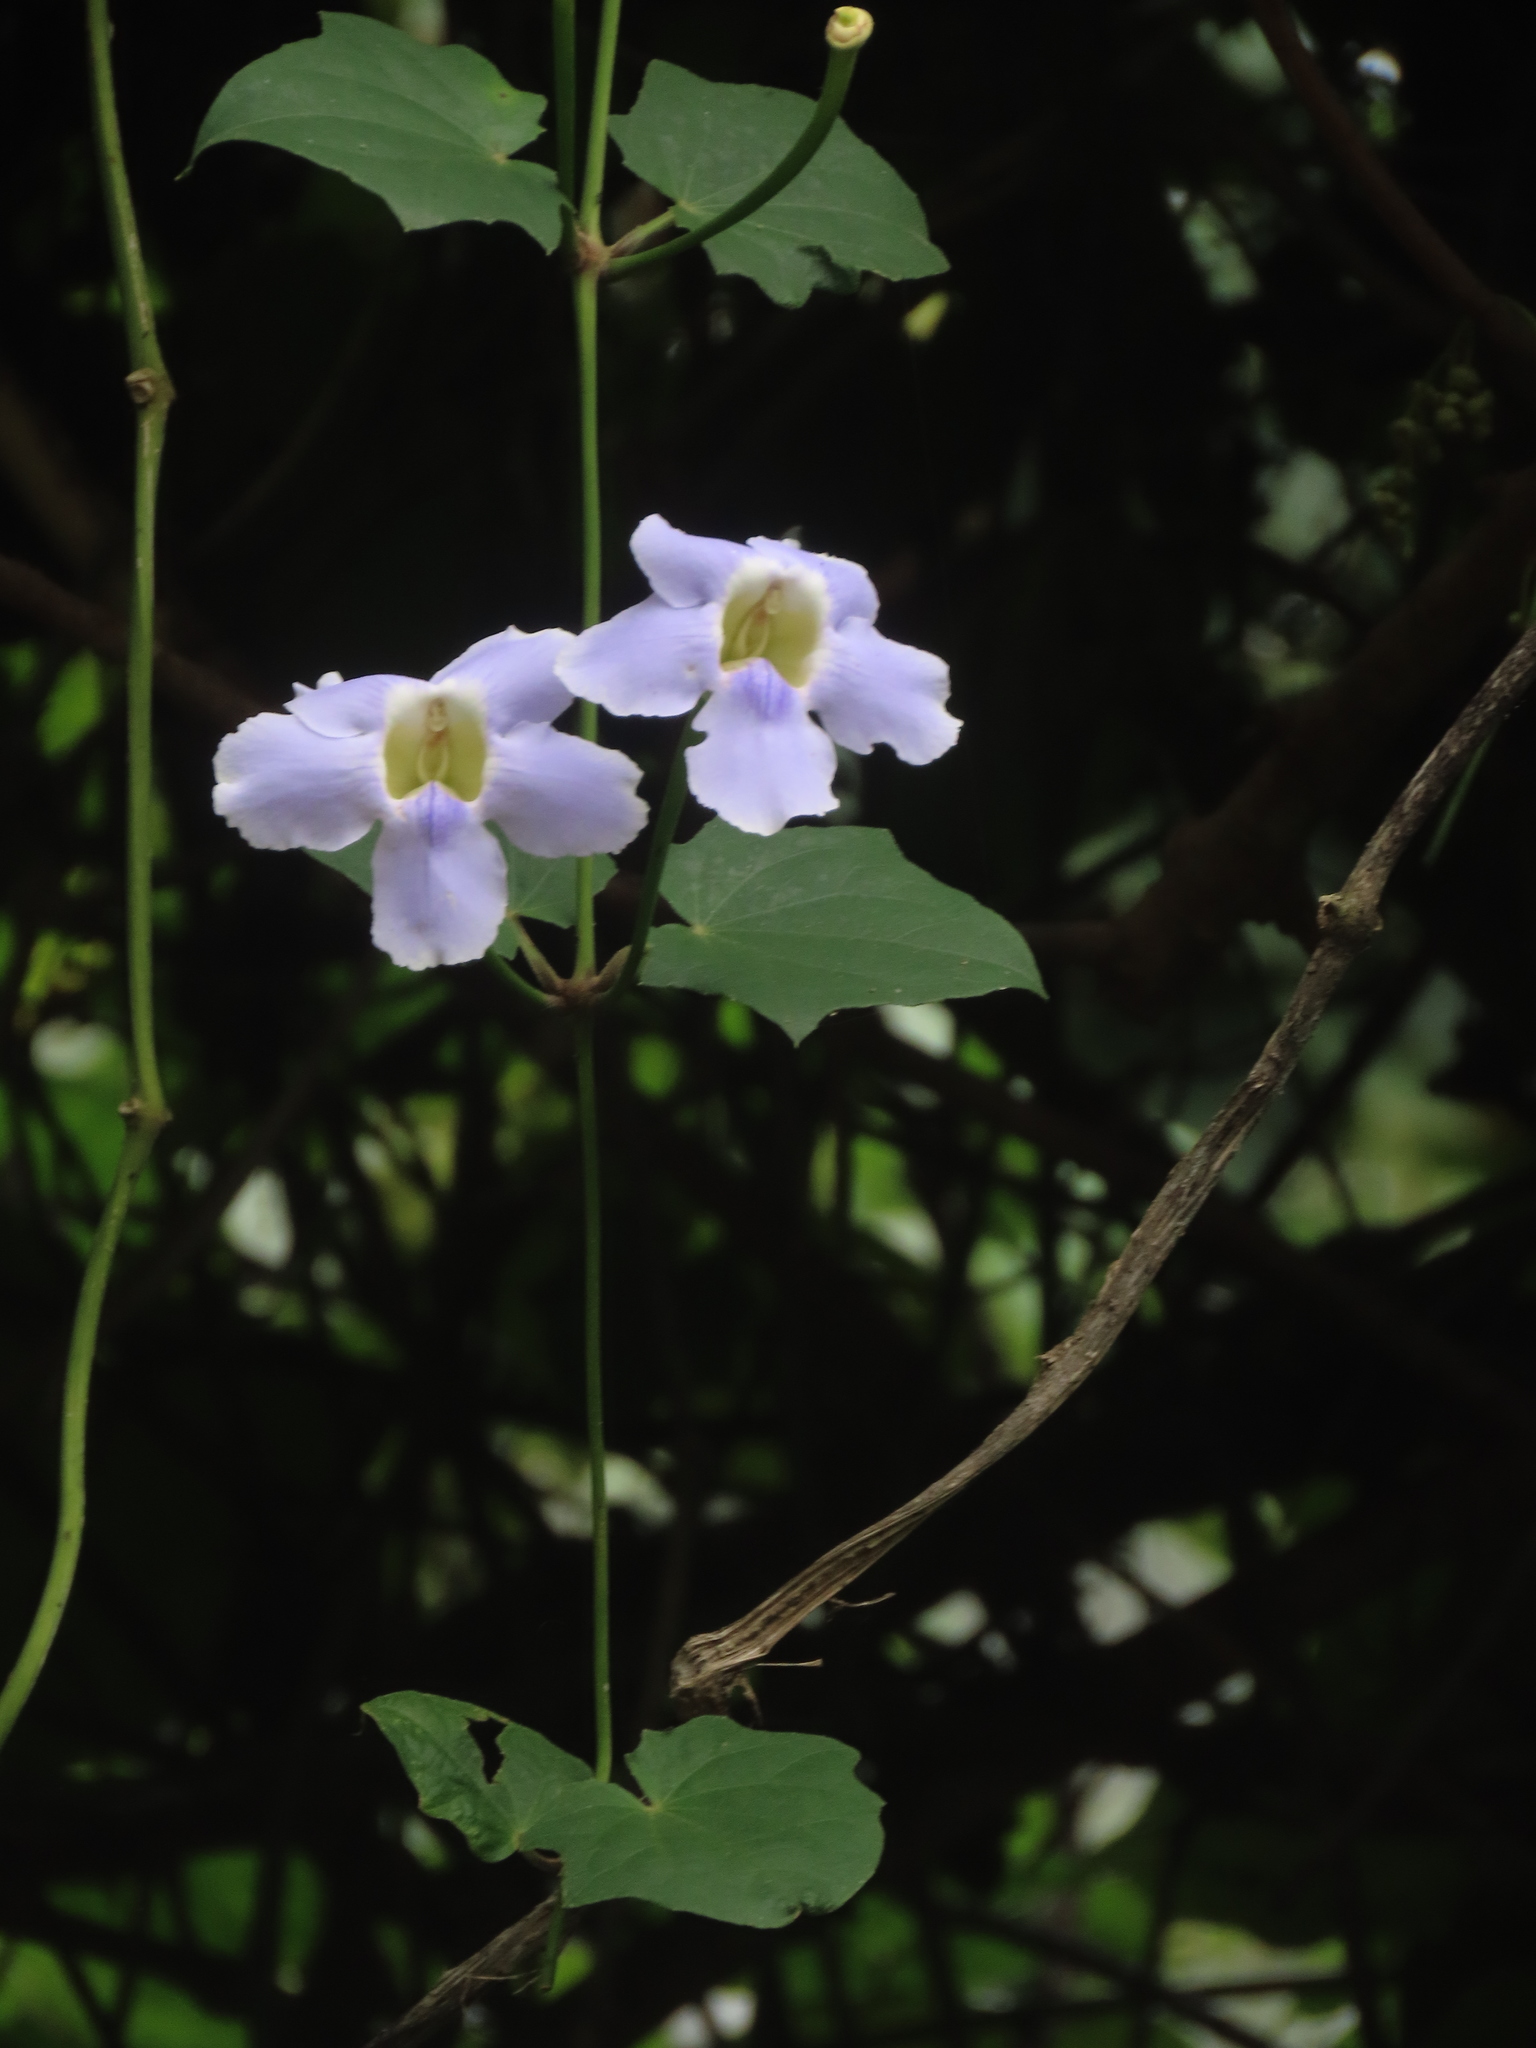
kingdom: Plantae
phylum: Tracheophyta
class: Magnoliopsida
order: Lamiales
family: Acanthaceae
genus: Thunbergia
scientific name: Thunbergia grandiflora
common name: Bengal trumpet
